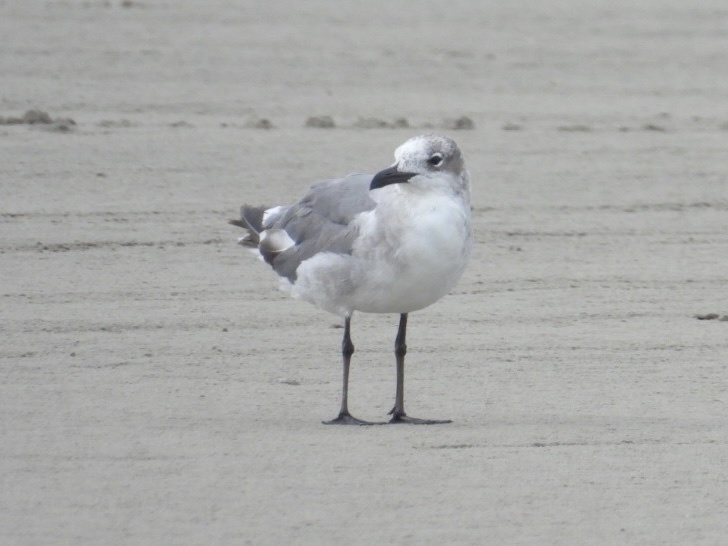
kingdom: Animalia
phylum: Chordata
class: Aves
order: Charadriiformes
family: Laridae
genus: Leucophaeus
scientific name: Leucophaeus atricilla
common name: Laughing gull
